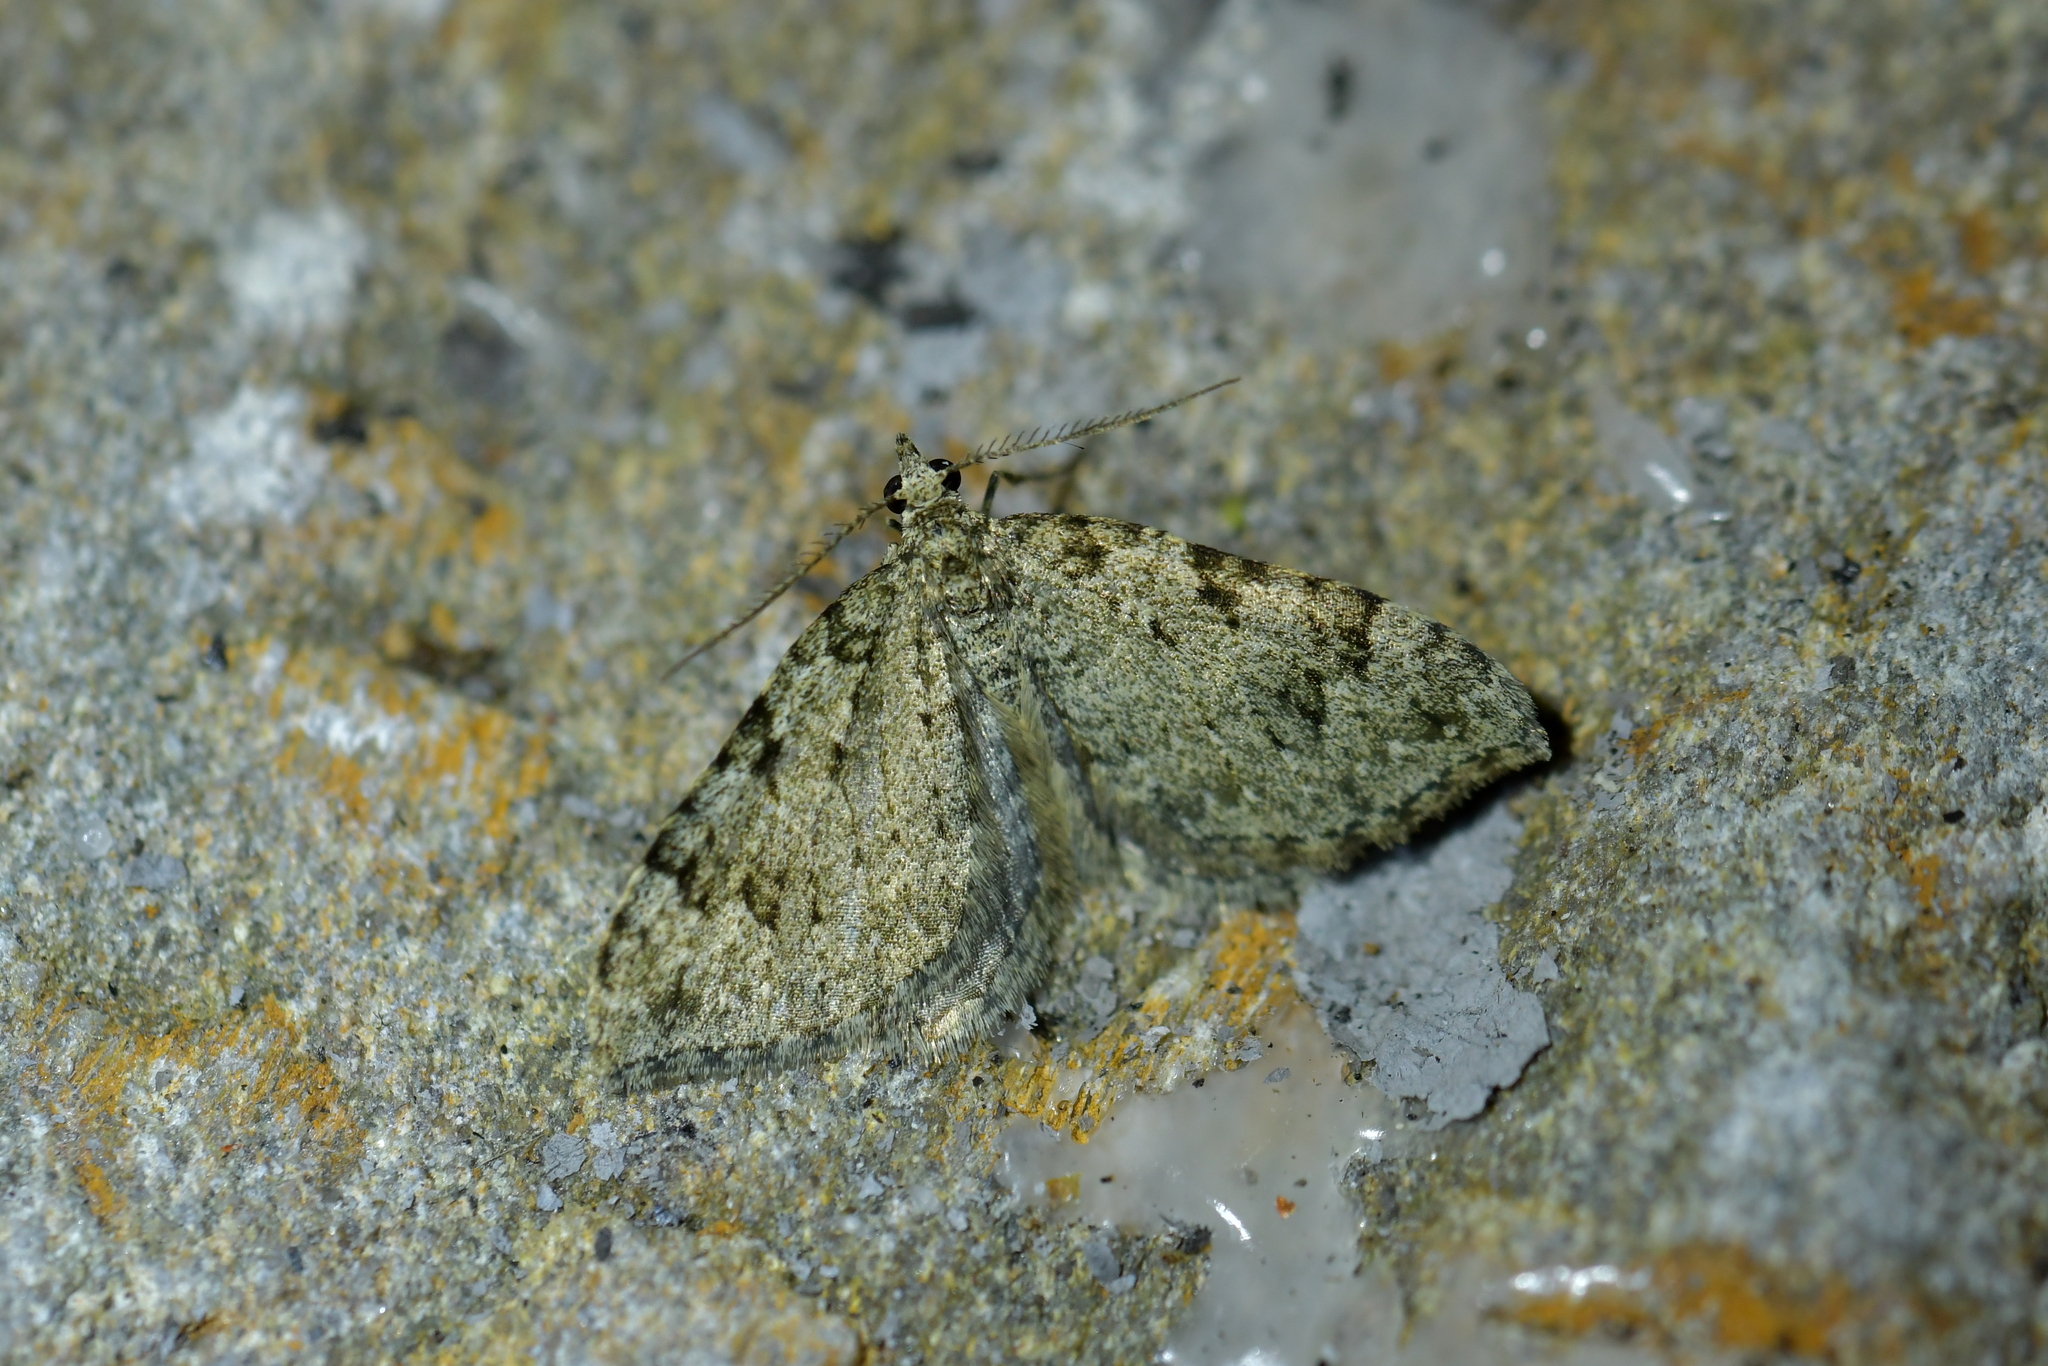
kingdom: Animalia
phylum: Arthropoda
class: Insecta
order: Lepidoptera
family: Geometridae
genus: Helastia
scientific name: Helastia cinerearia
